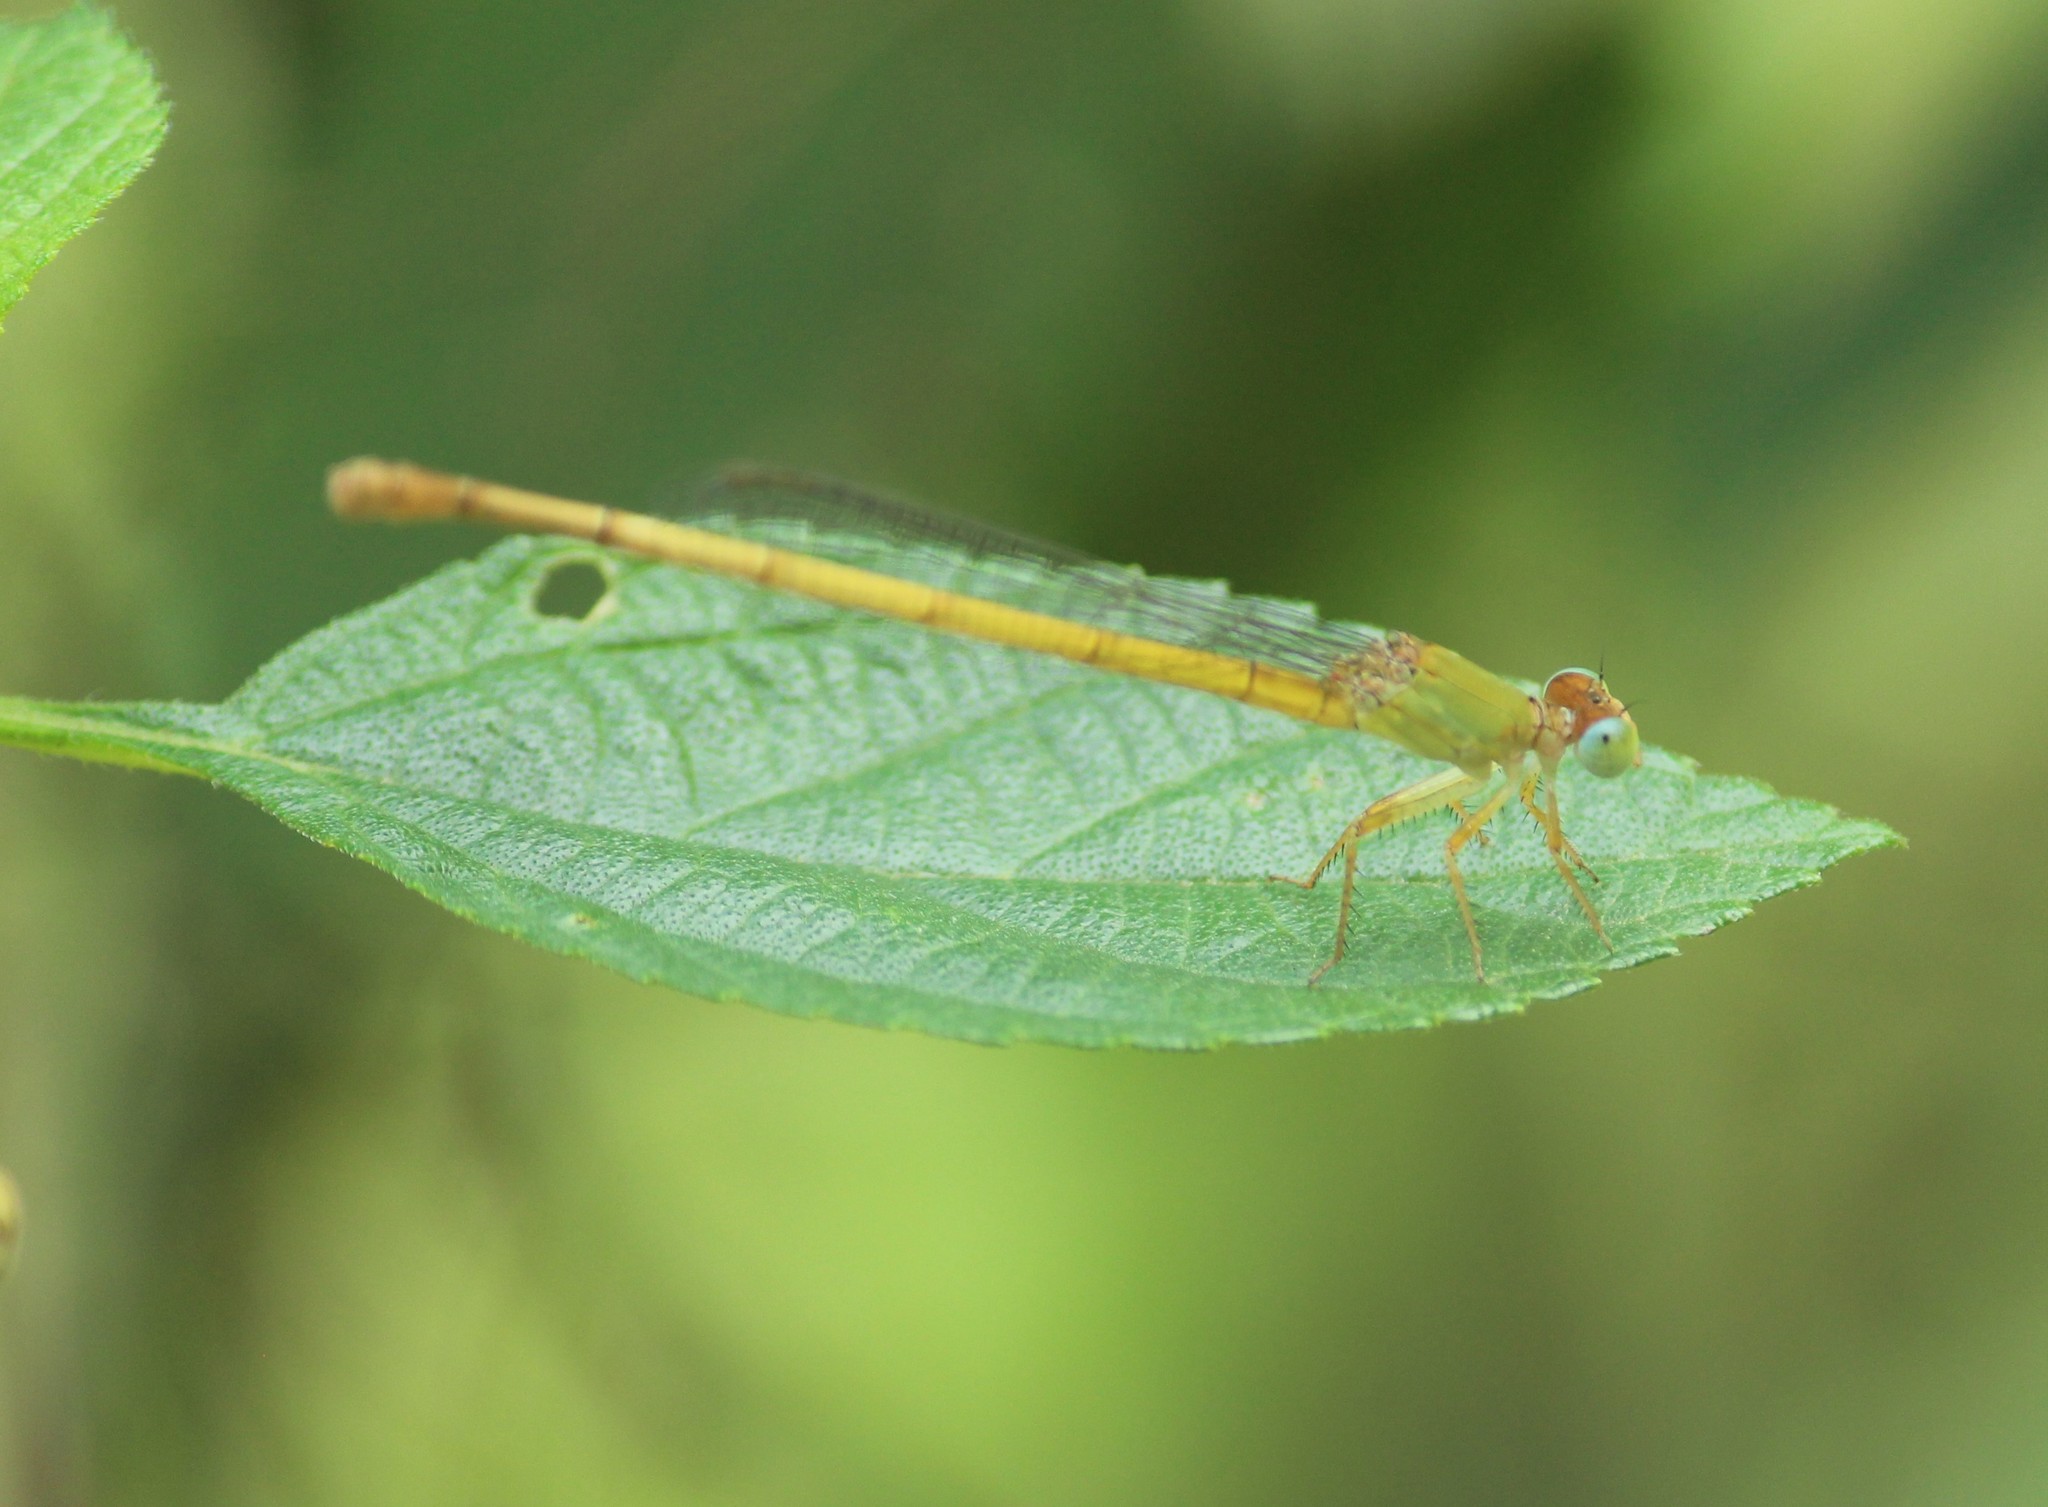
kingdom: Animalia
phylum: Arthropoda
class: Insecta
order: Odonata
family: Coenagrionidae
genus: Ceriagrion
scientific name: Ceriagrion coromandelianum
